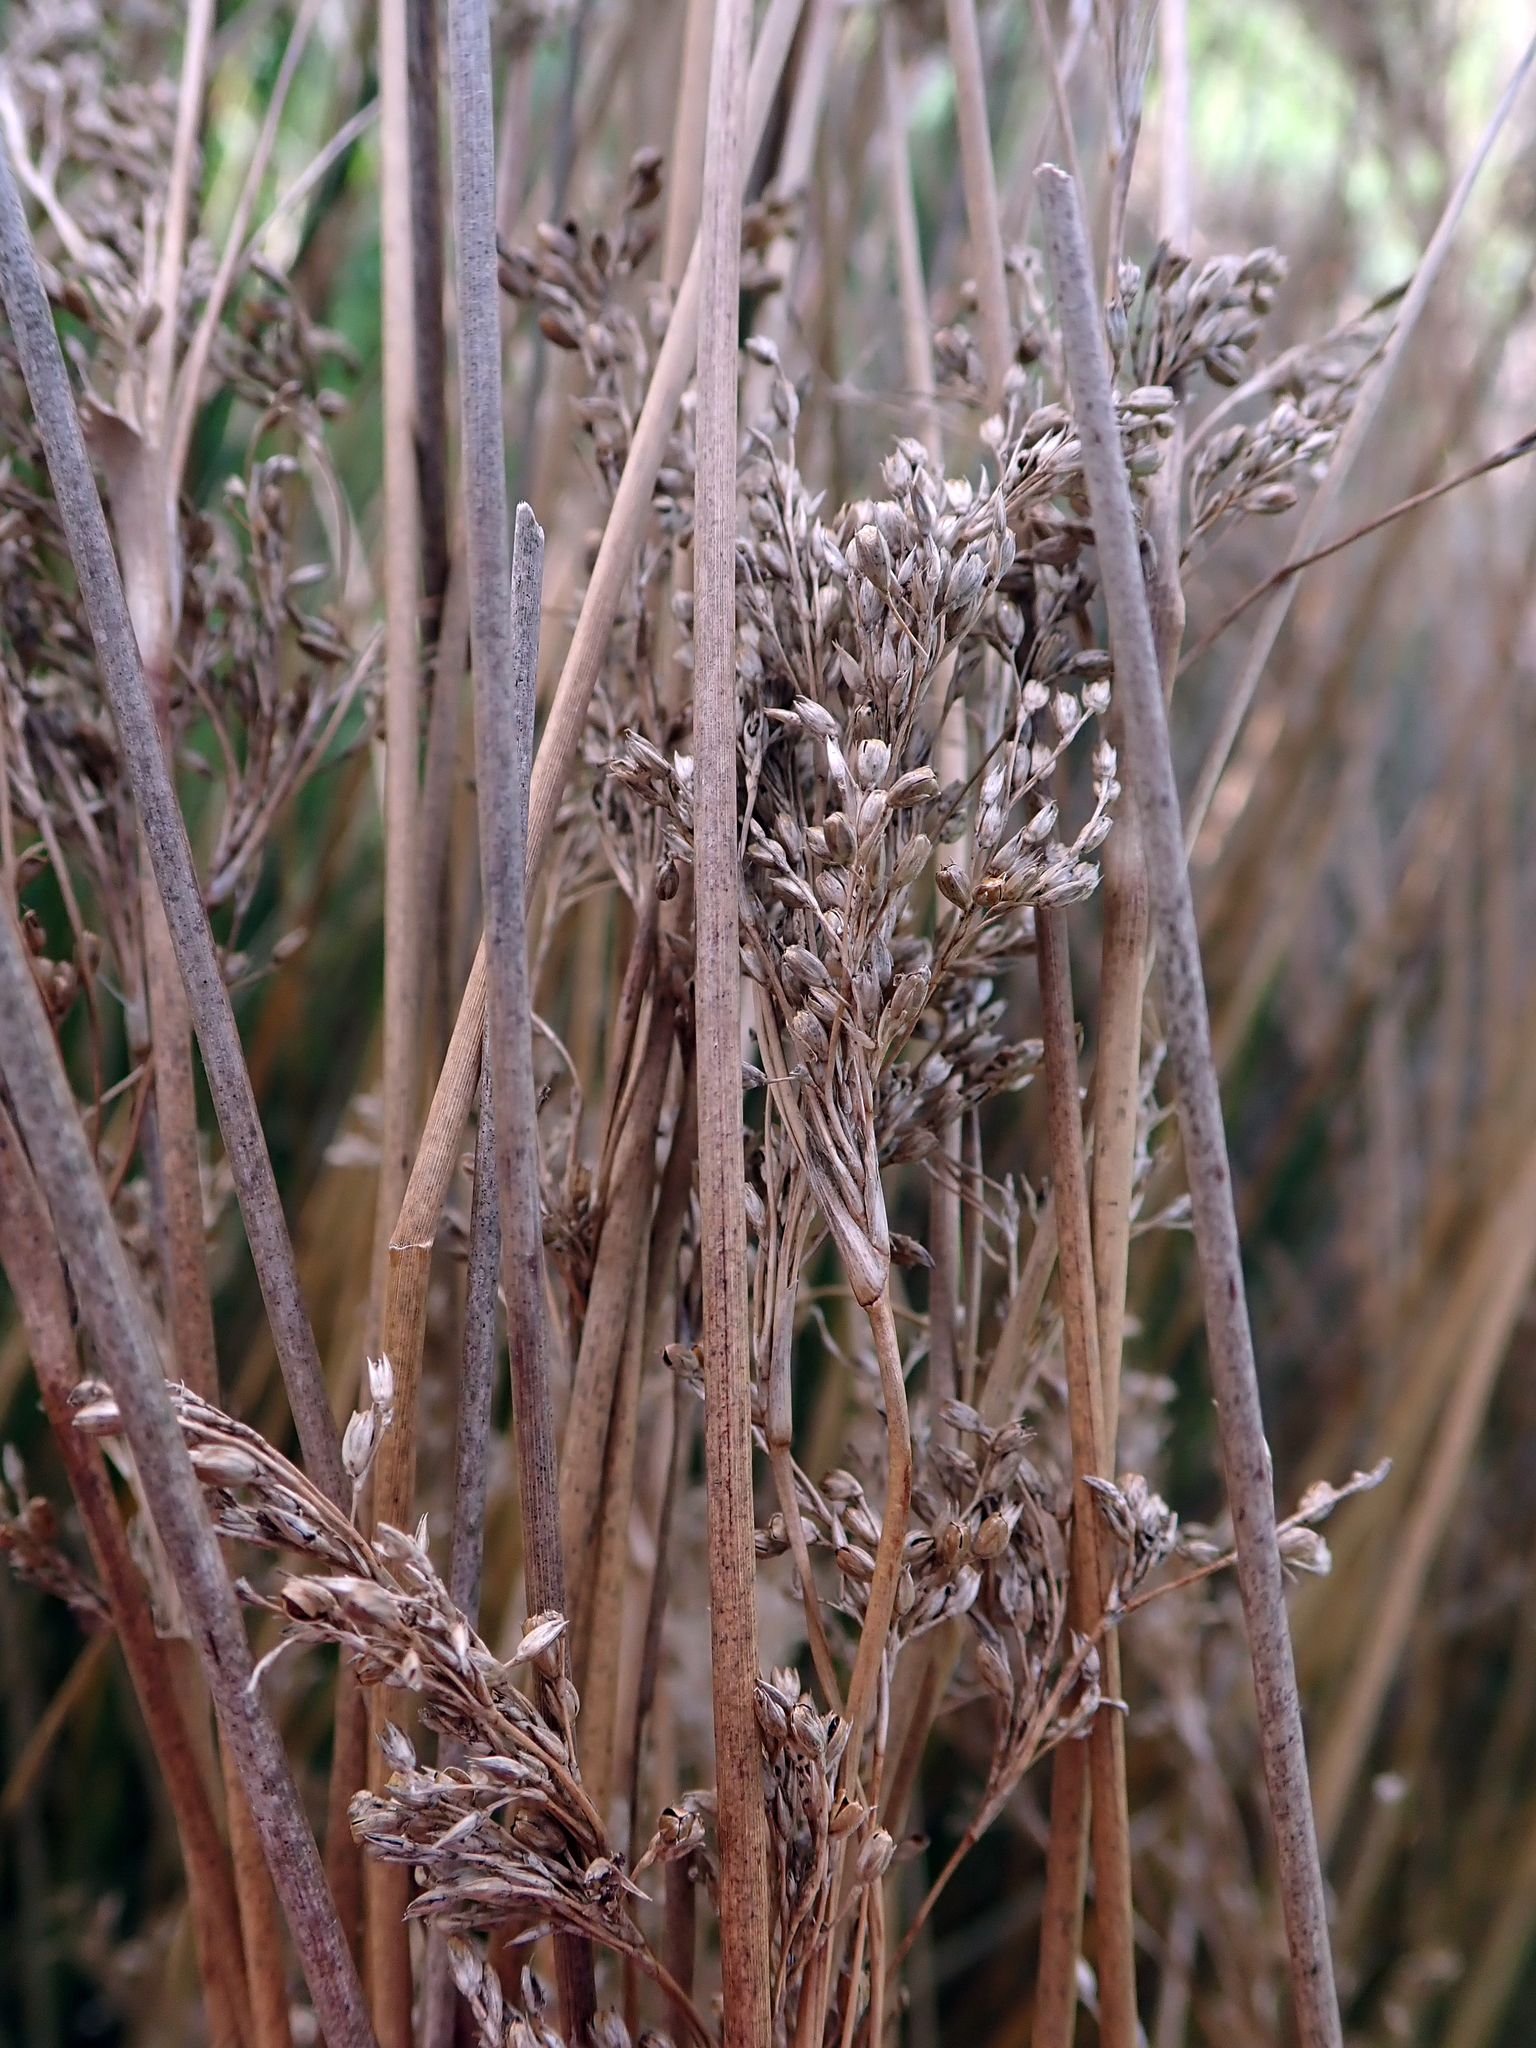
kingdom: Plantae
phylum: Tracheophyta
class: Liliopsida
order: Poales
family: Juncaceae
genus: Juncus
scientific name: Juncus sarophorus
